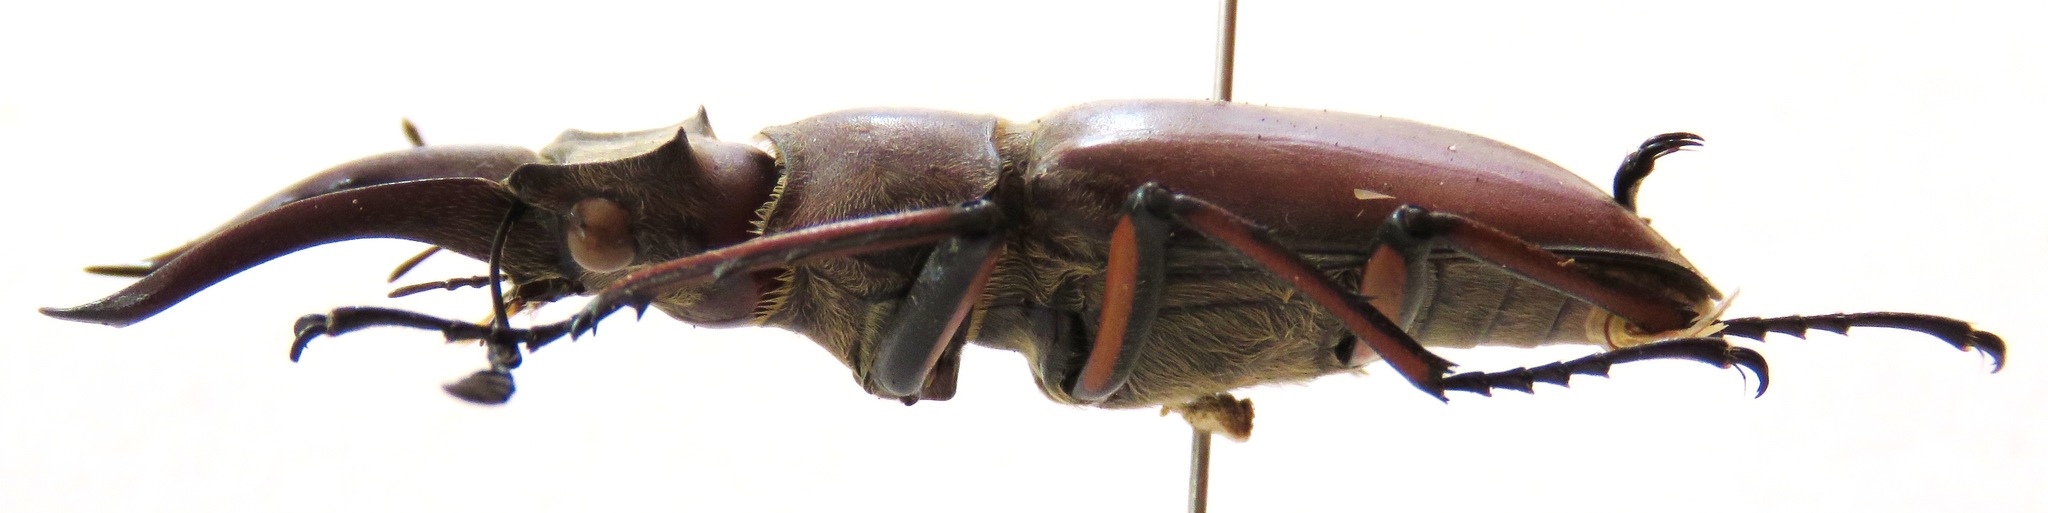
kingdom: Animalia
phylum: Arthropoda
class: Insecta
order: Coleoptera
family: Lucanidae
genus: Lucanus
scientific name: Lucanus luci
